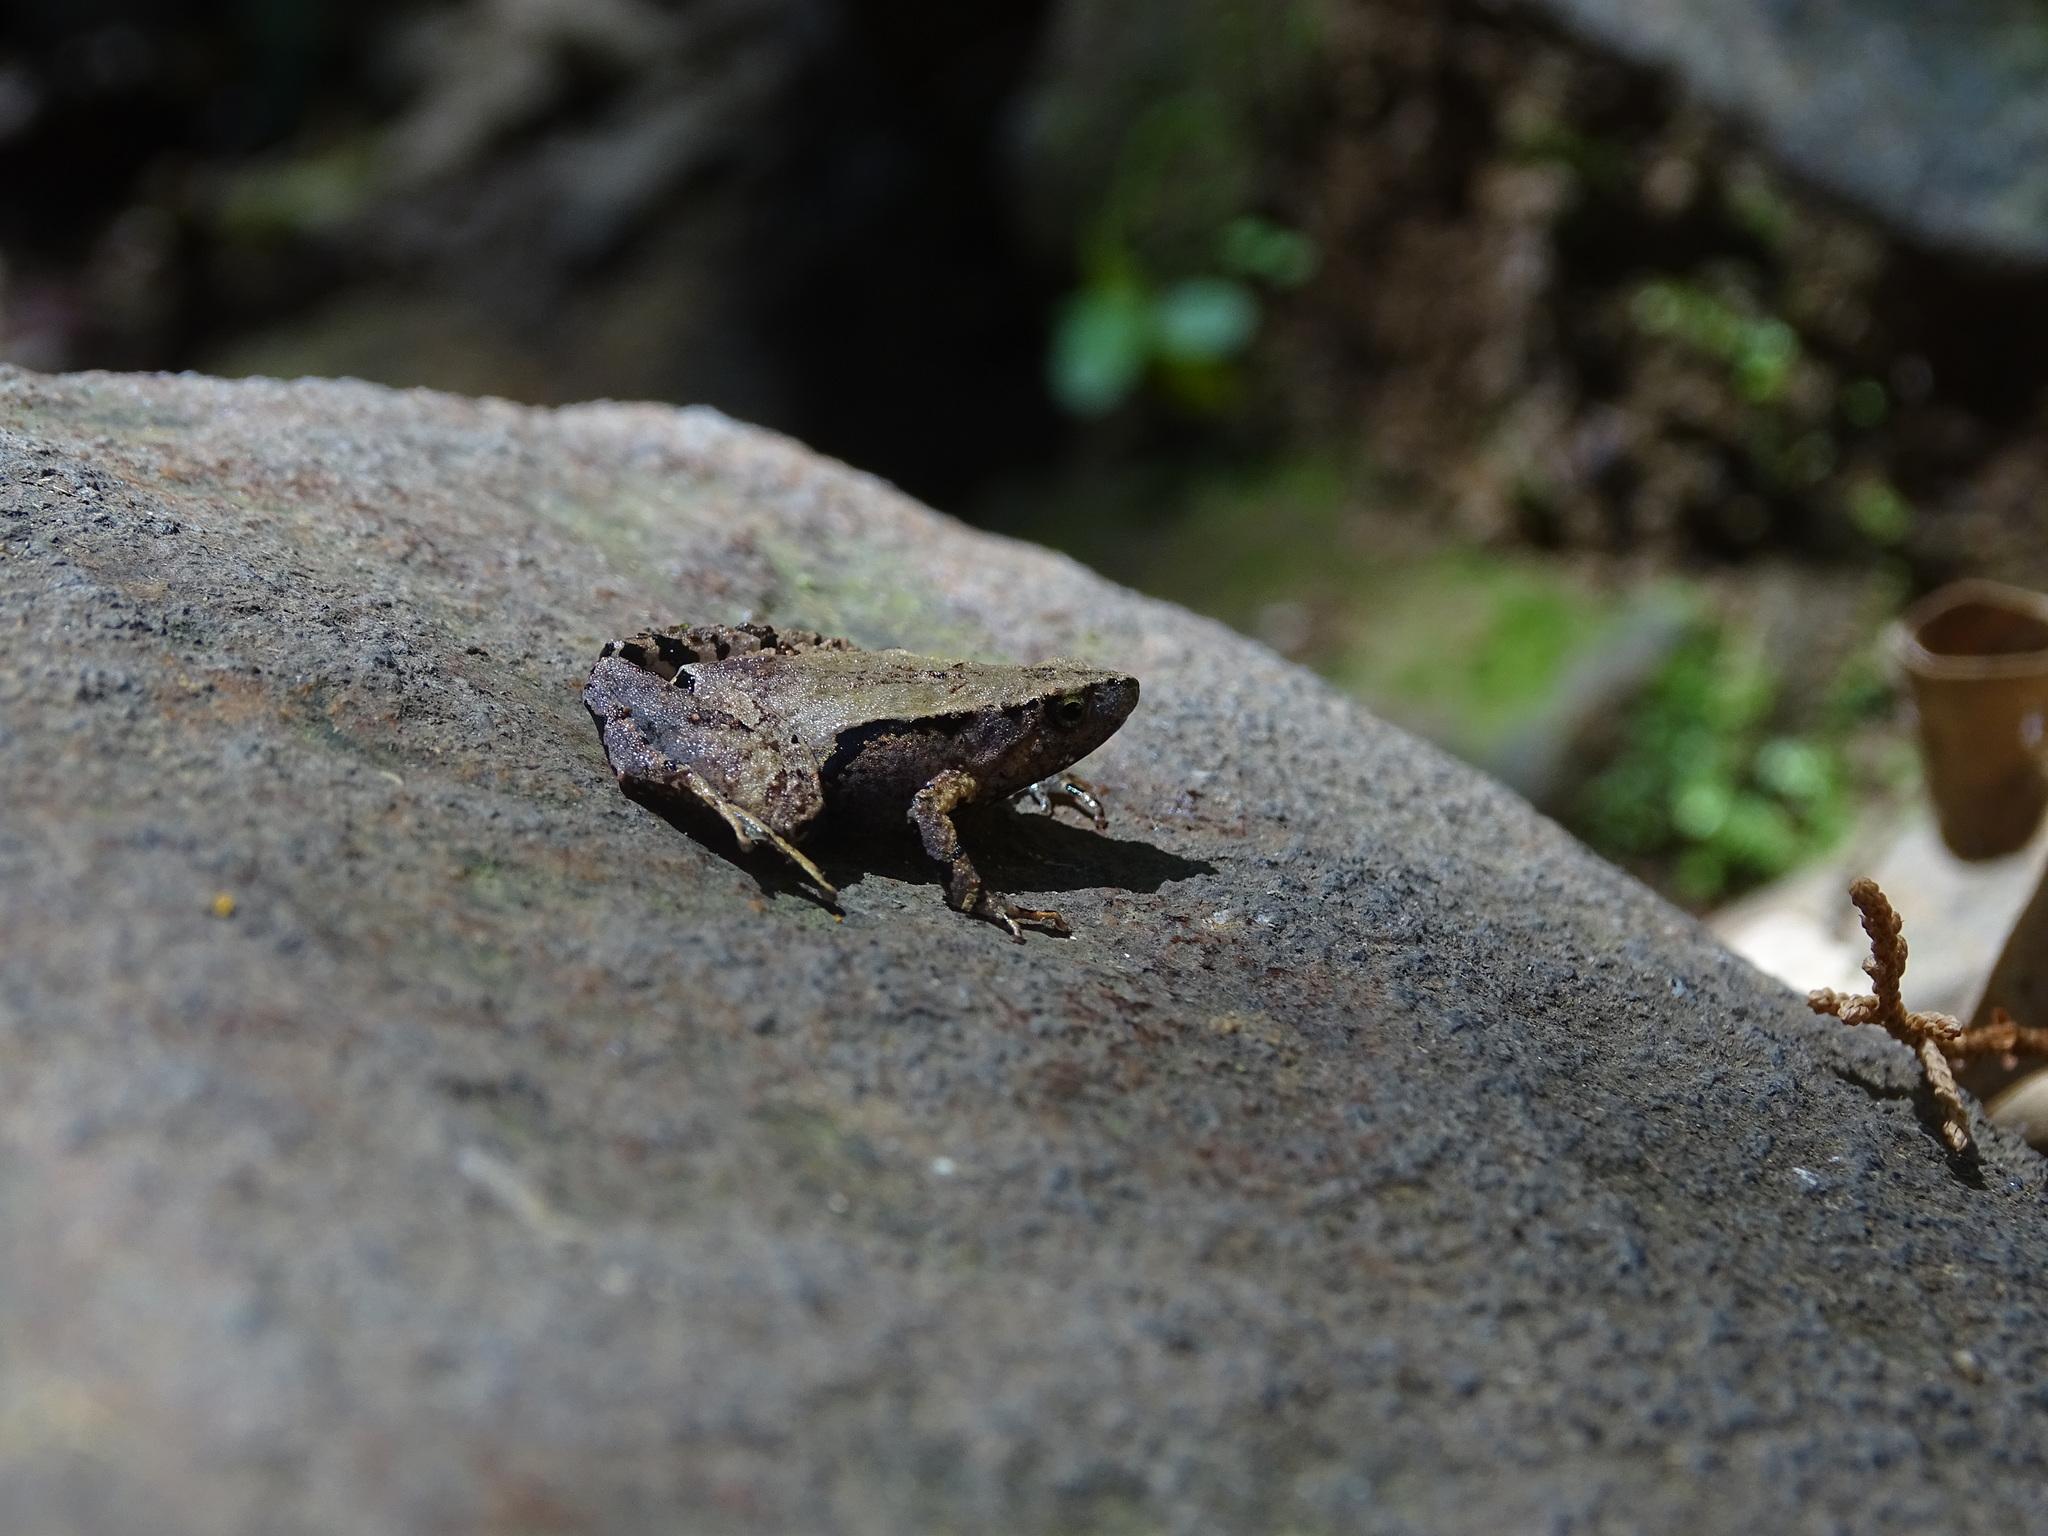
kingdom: Animalia
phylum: Chordata
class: Amphibia
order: Anura
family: Microhylidae
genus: Microhyla
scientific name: Microhyla achatina
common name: Javan chorus frog
